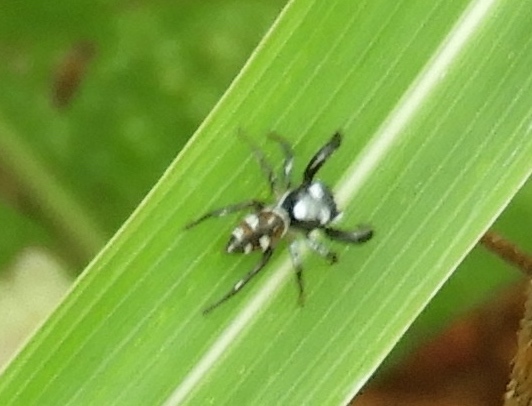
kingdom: Animalia
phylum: Arthropoda
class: Arachnida
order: Araneae
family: Salticidae
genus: Sassacus
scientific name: Sassacus
